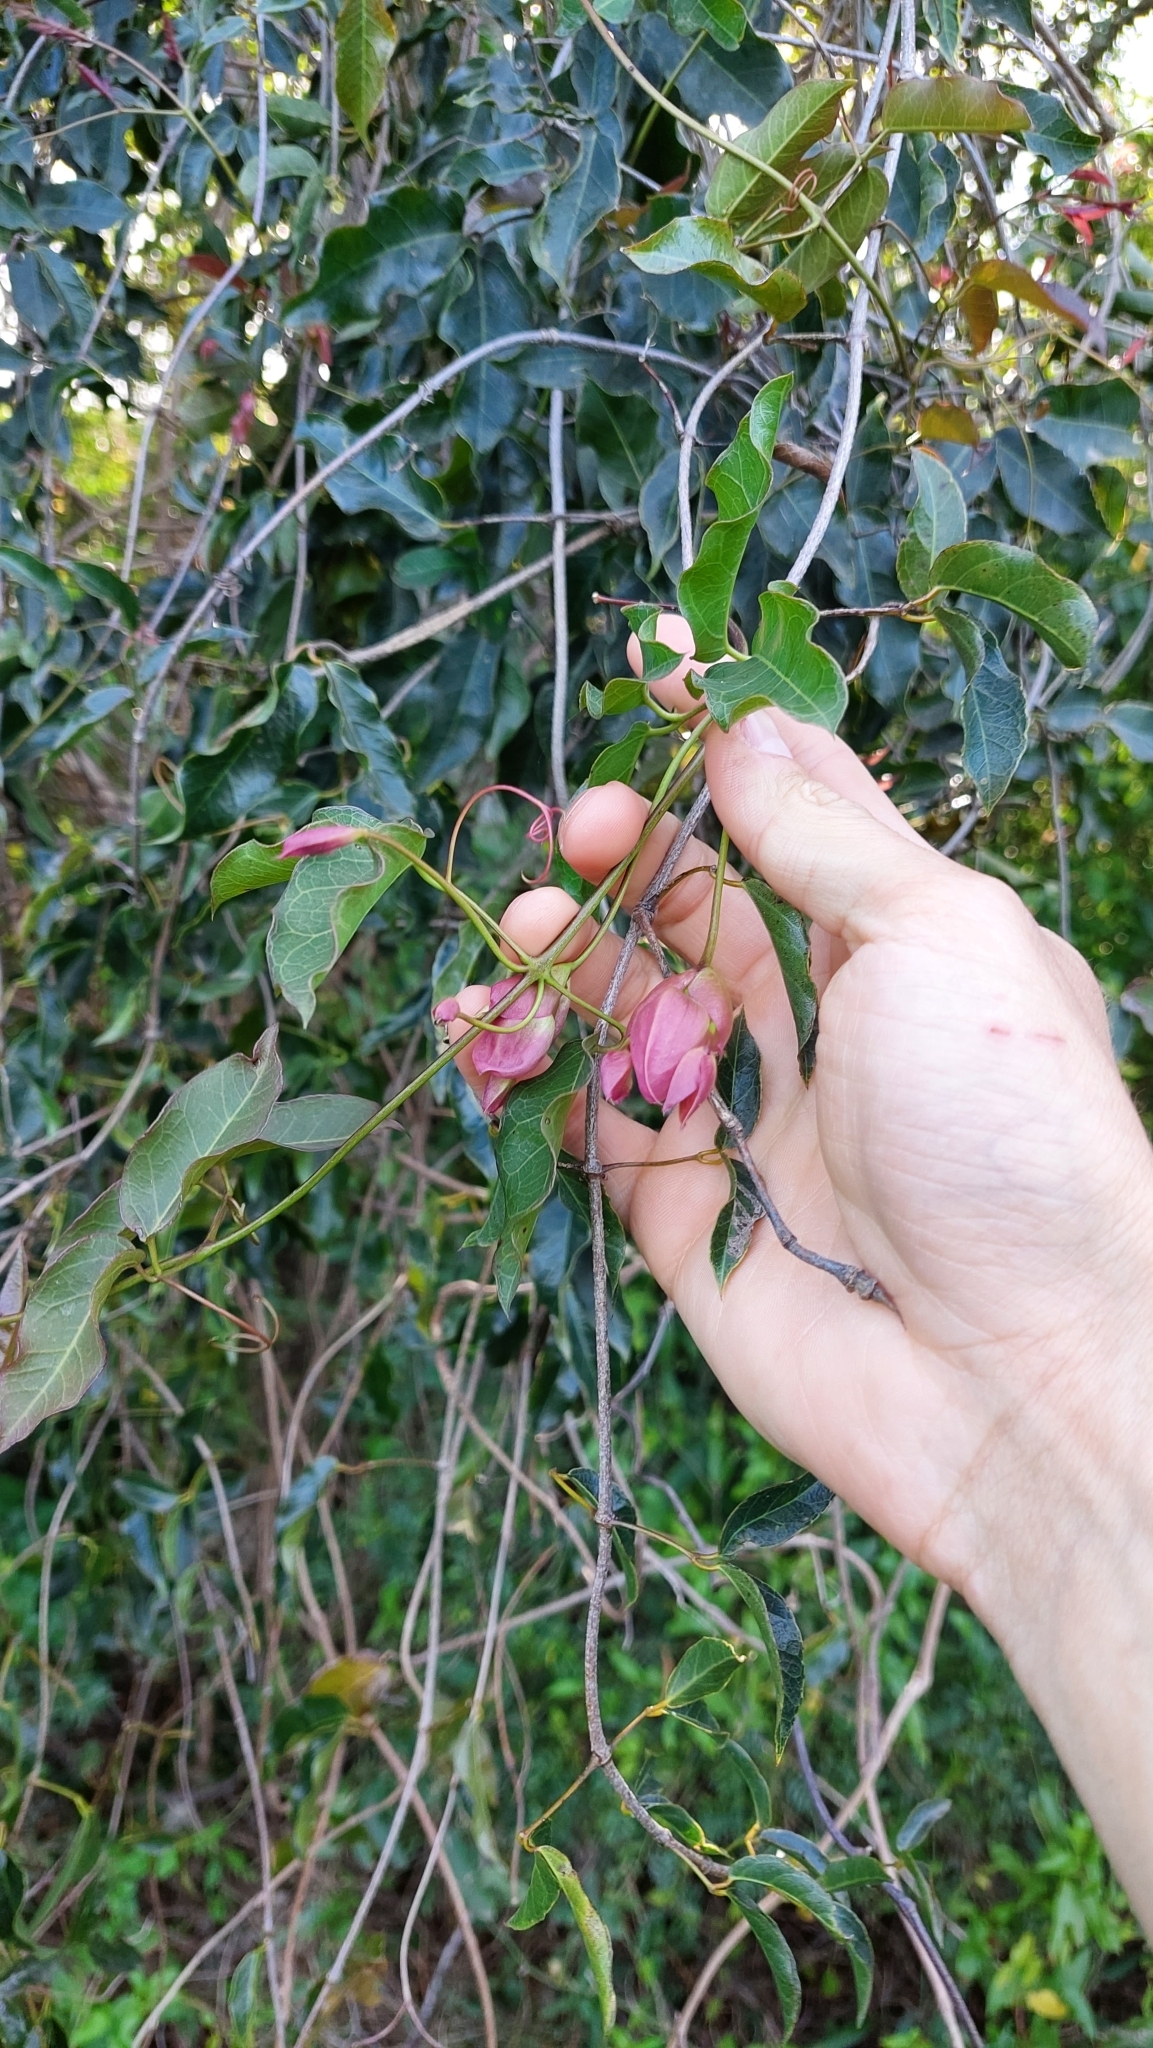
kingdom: Plantae
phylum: Tracheophyta
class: Magnoliopsida
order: Lamiales
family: Bignoniaceae
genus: Dolichandra
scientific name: Dolichandra cynanchoides
